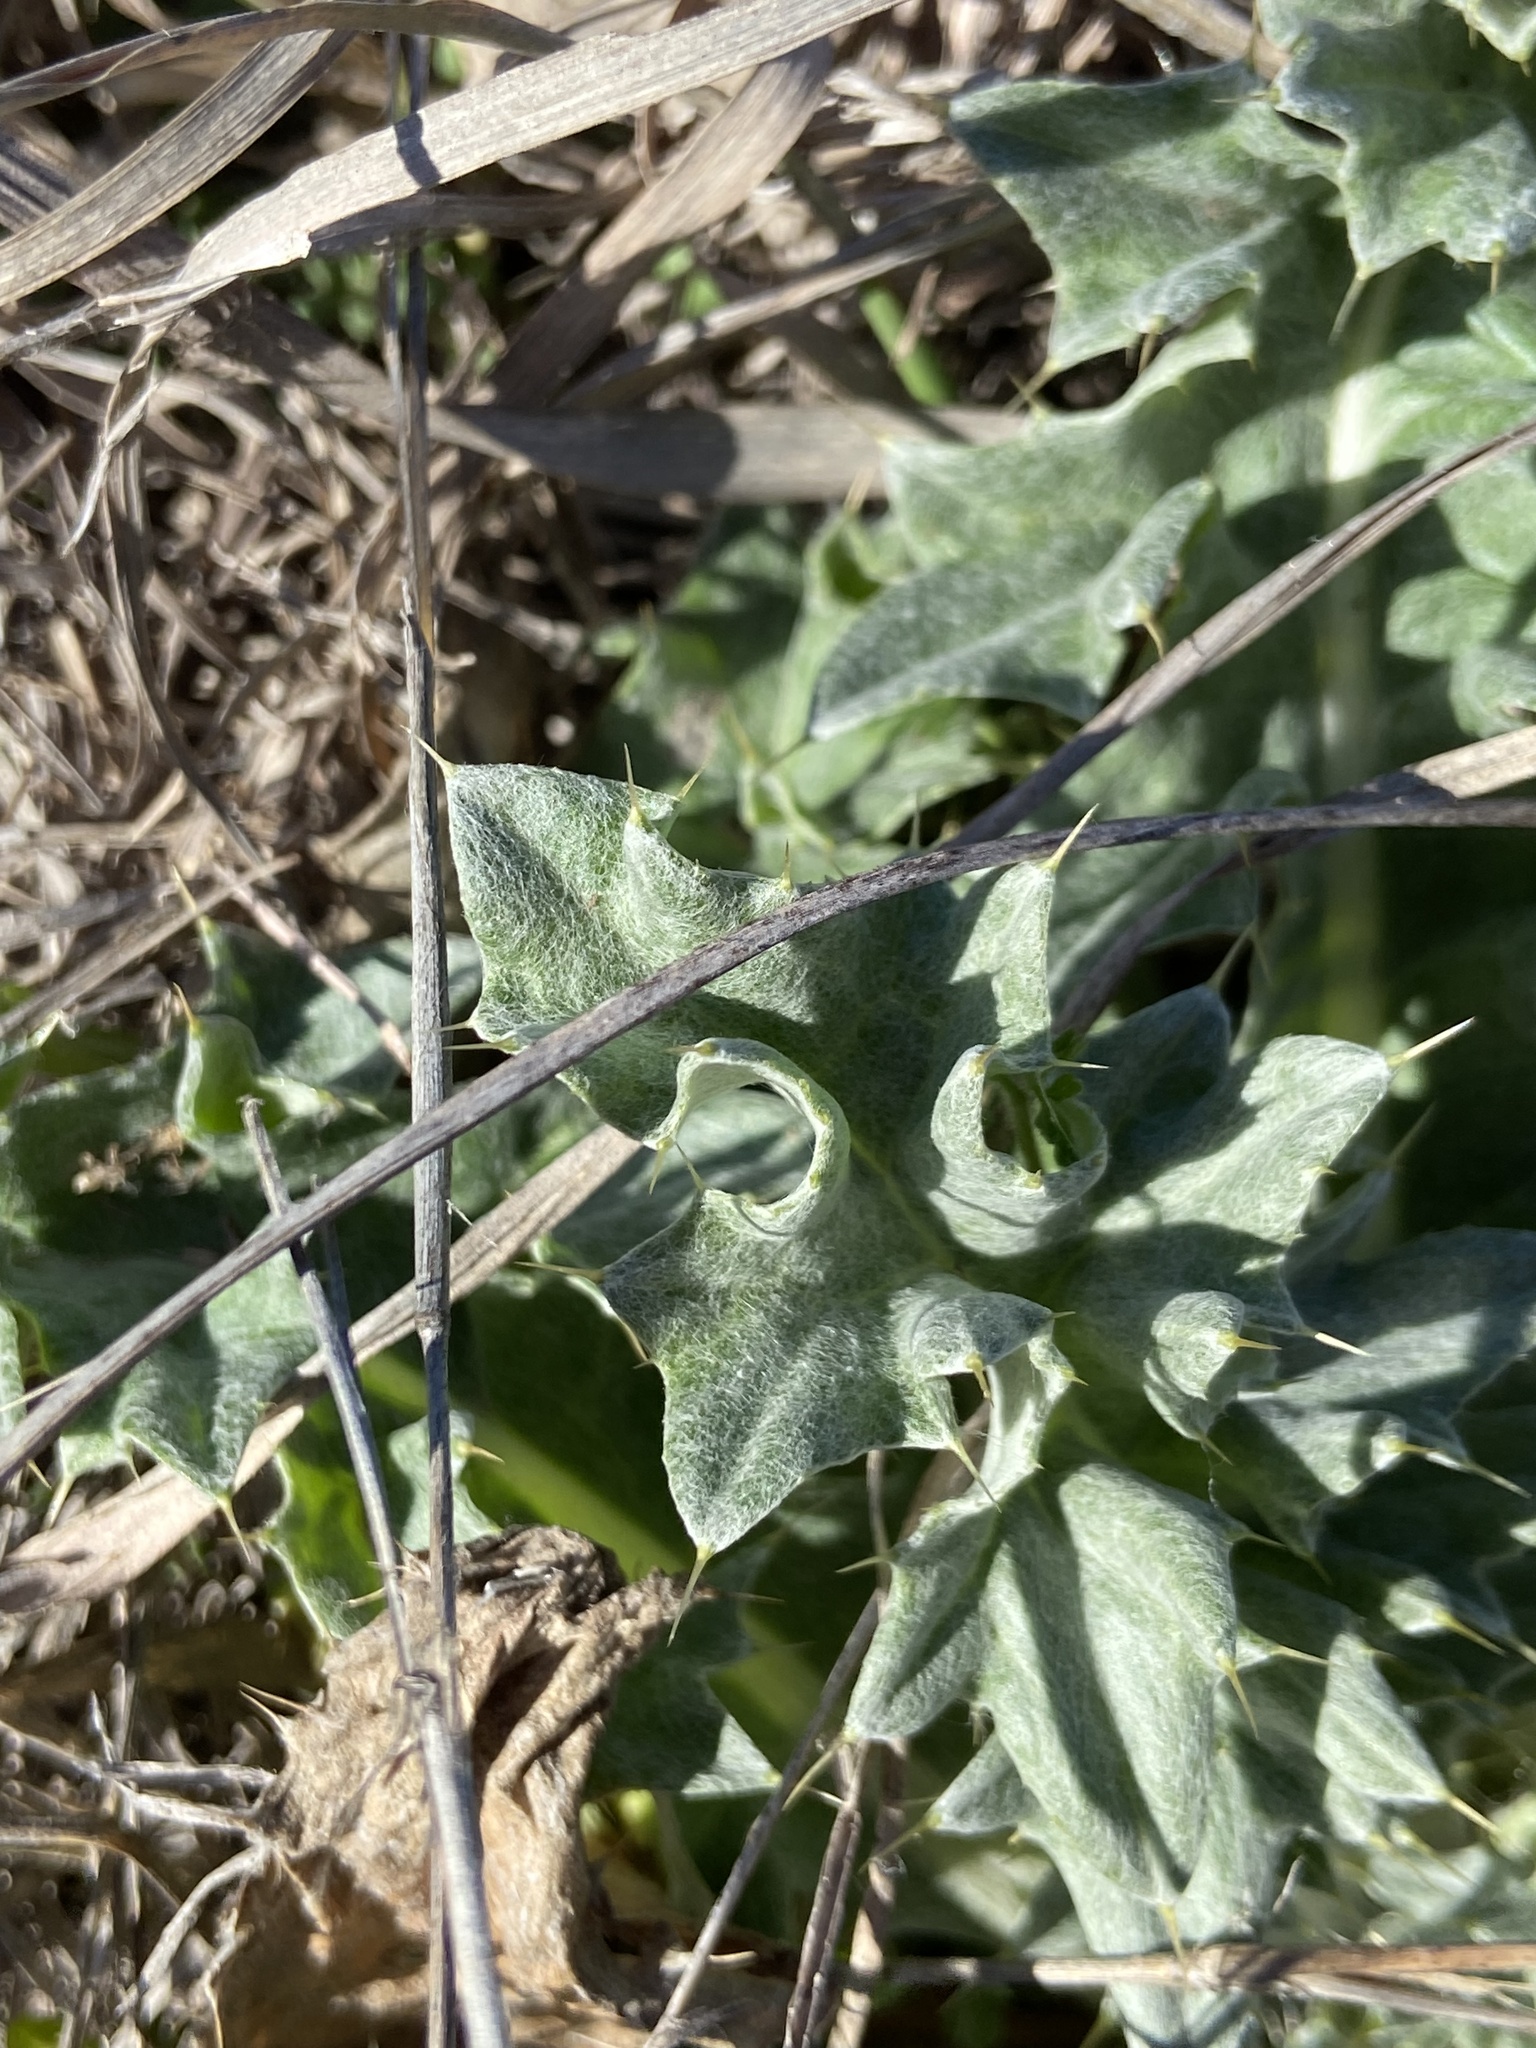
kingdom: Plantae
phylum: Tracheophyta
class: Magnoliopsida
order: Asterales
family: Asteraceae
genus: Cirsium
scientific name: Cirsium undulatum
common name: Pasture thistle
